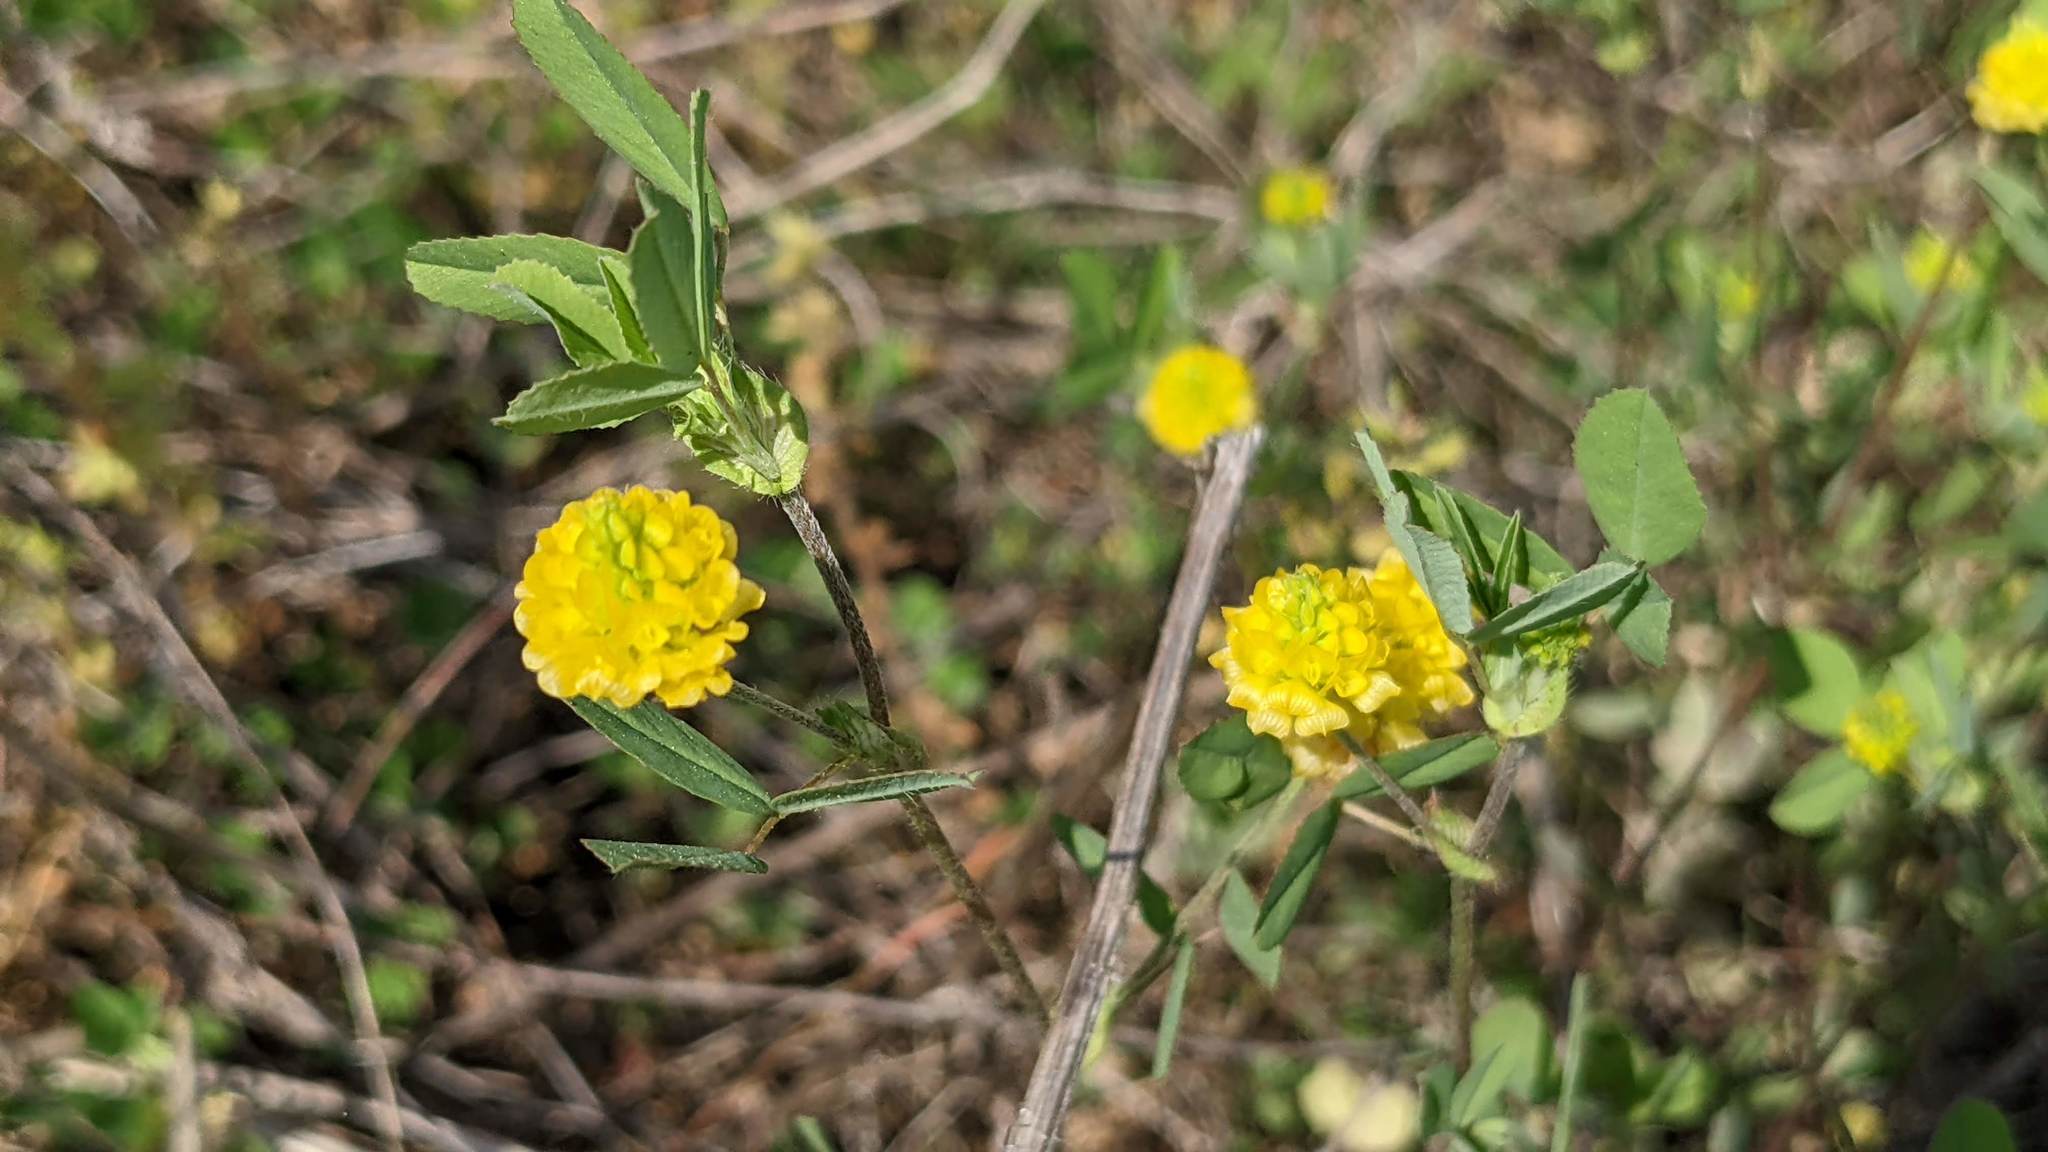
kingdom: Plantae
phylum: Tracheophyta
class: Magnoliopsida
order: Fabales
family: Fabaceae
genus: Trifolium
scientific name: Trifolium campestre
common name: Field clover
